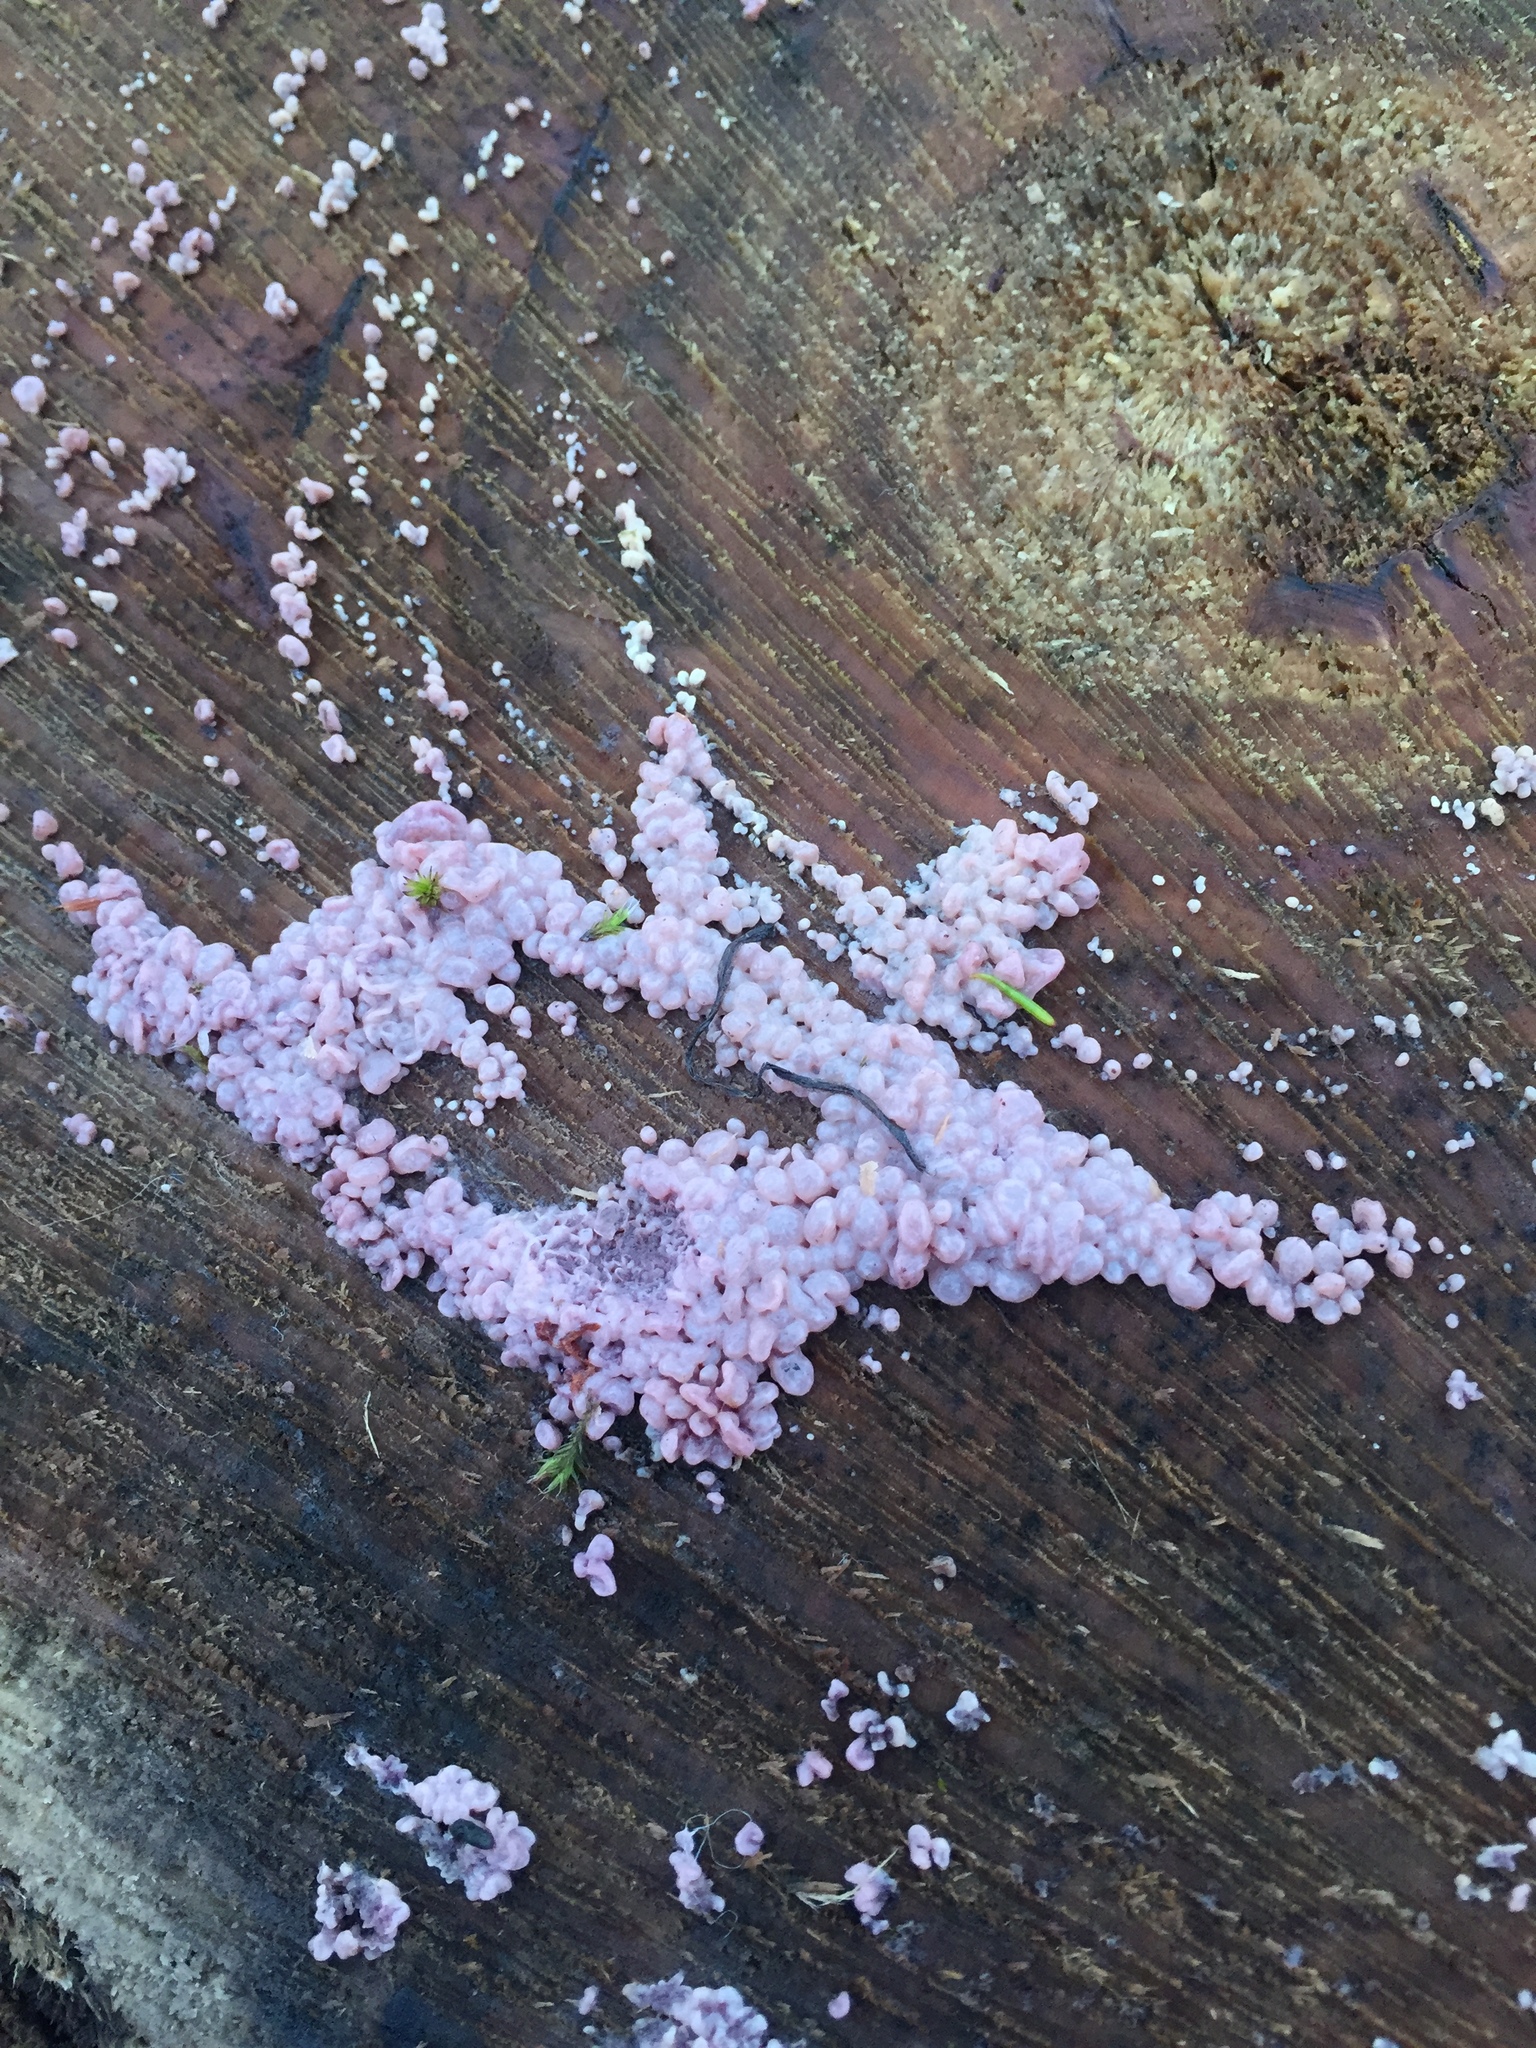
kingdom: Fungi
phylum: Ascomycota
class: Leotiomycetes
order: Helotiales
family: Gelatinodiscaceae
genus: Ascocoryne
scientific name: Ascocoryne sarcoides
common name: Purple jellydisc
